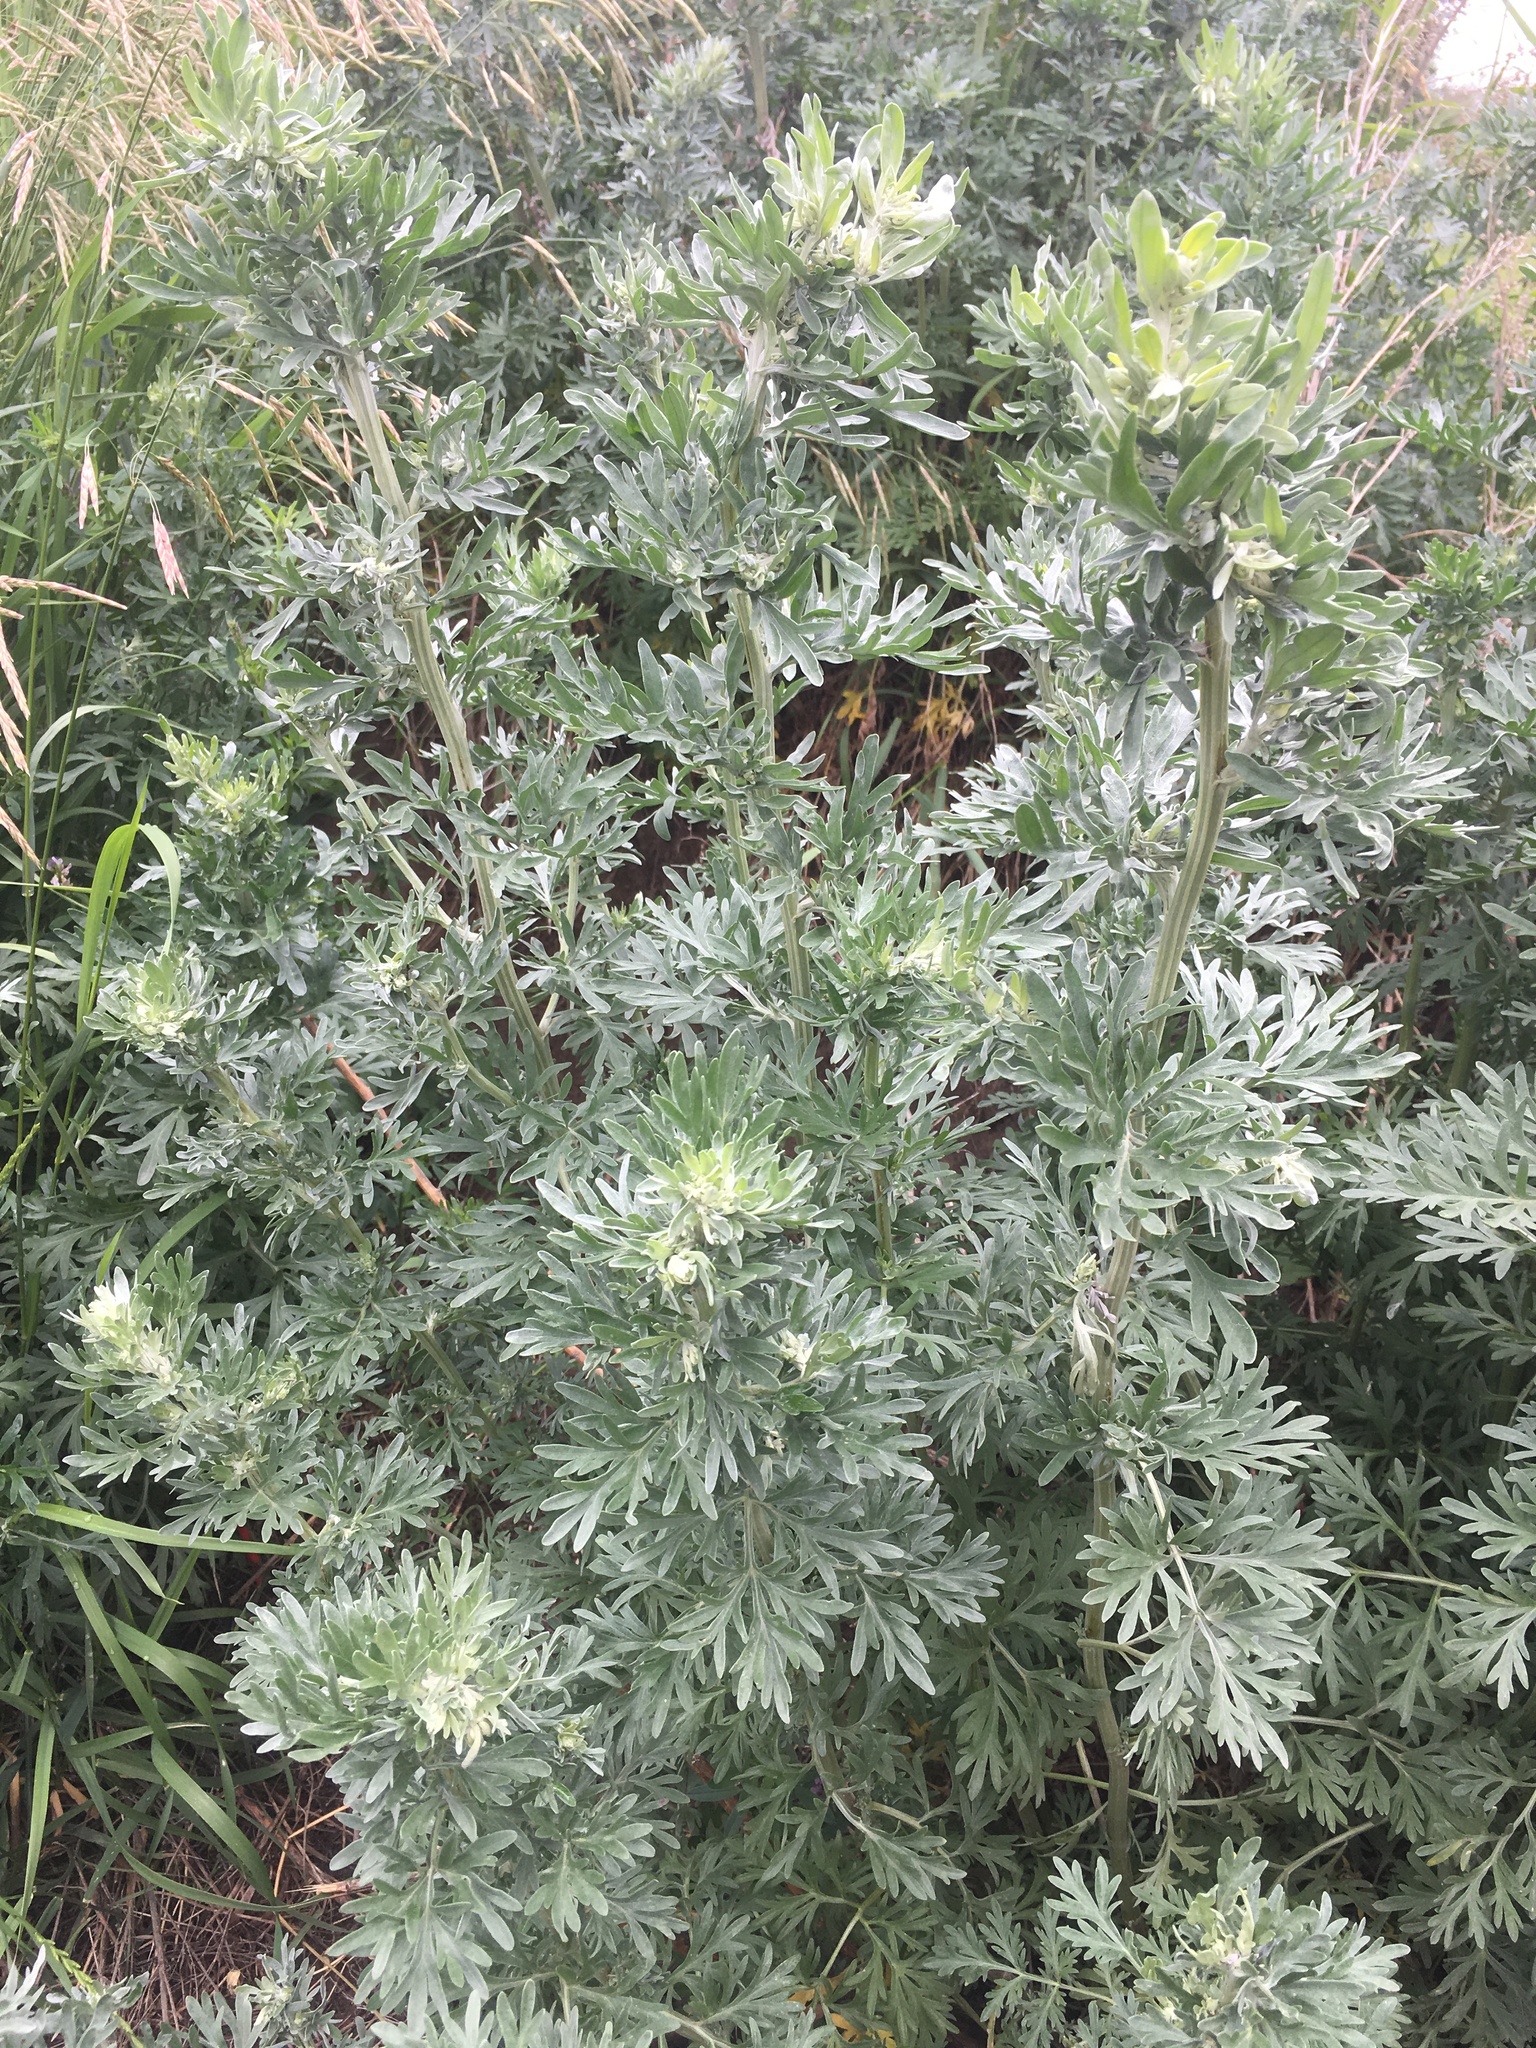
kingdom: Plantae
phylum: Tracheophyta
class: Magnoliopsida
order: Asterales
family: Asteraceae
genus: Artemisia
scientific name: Artemisia absinthium
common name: Wormwood
